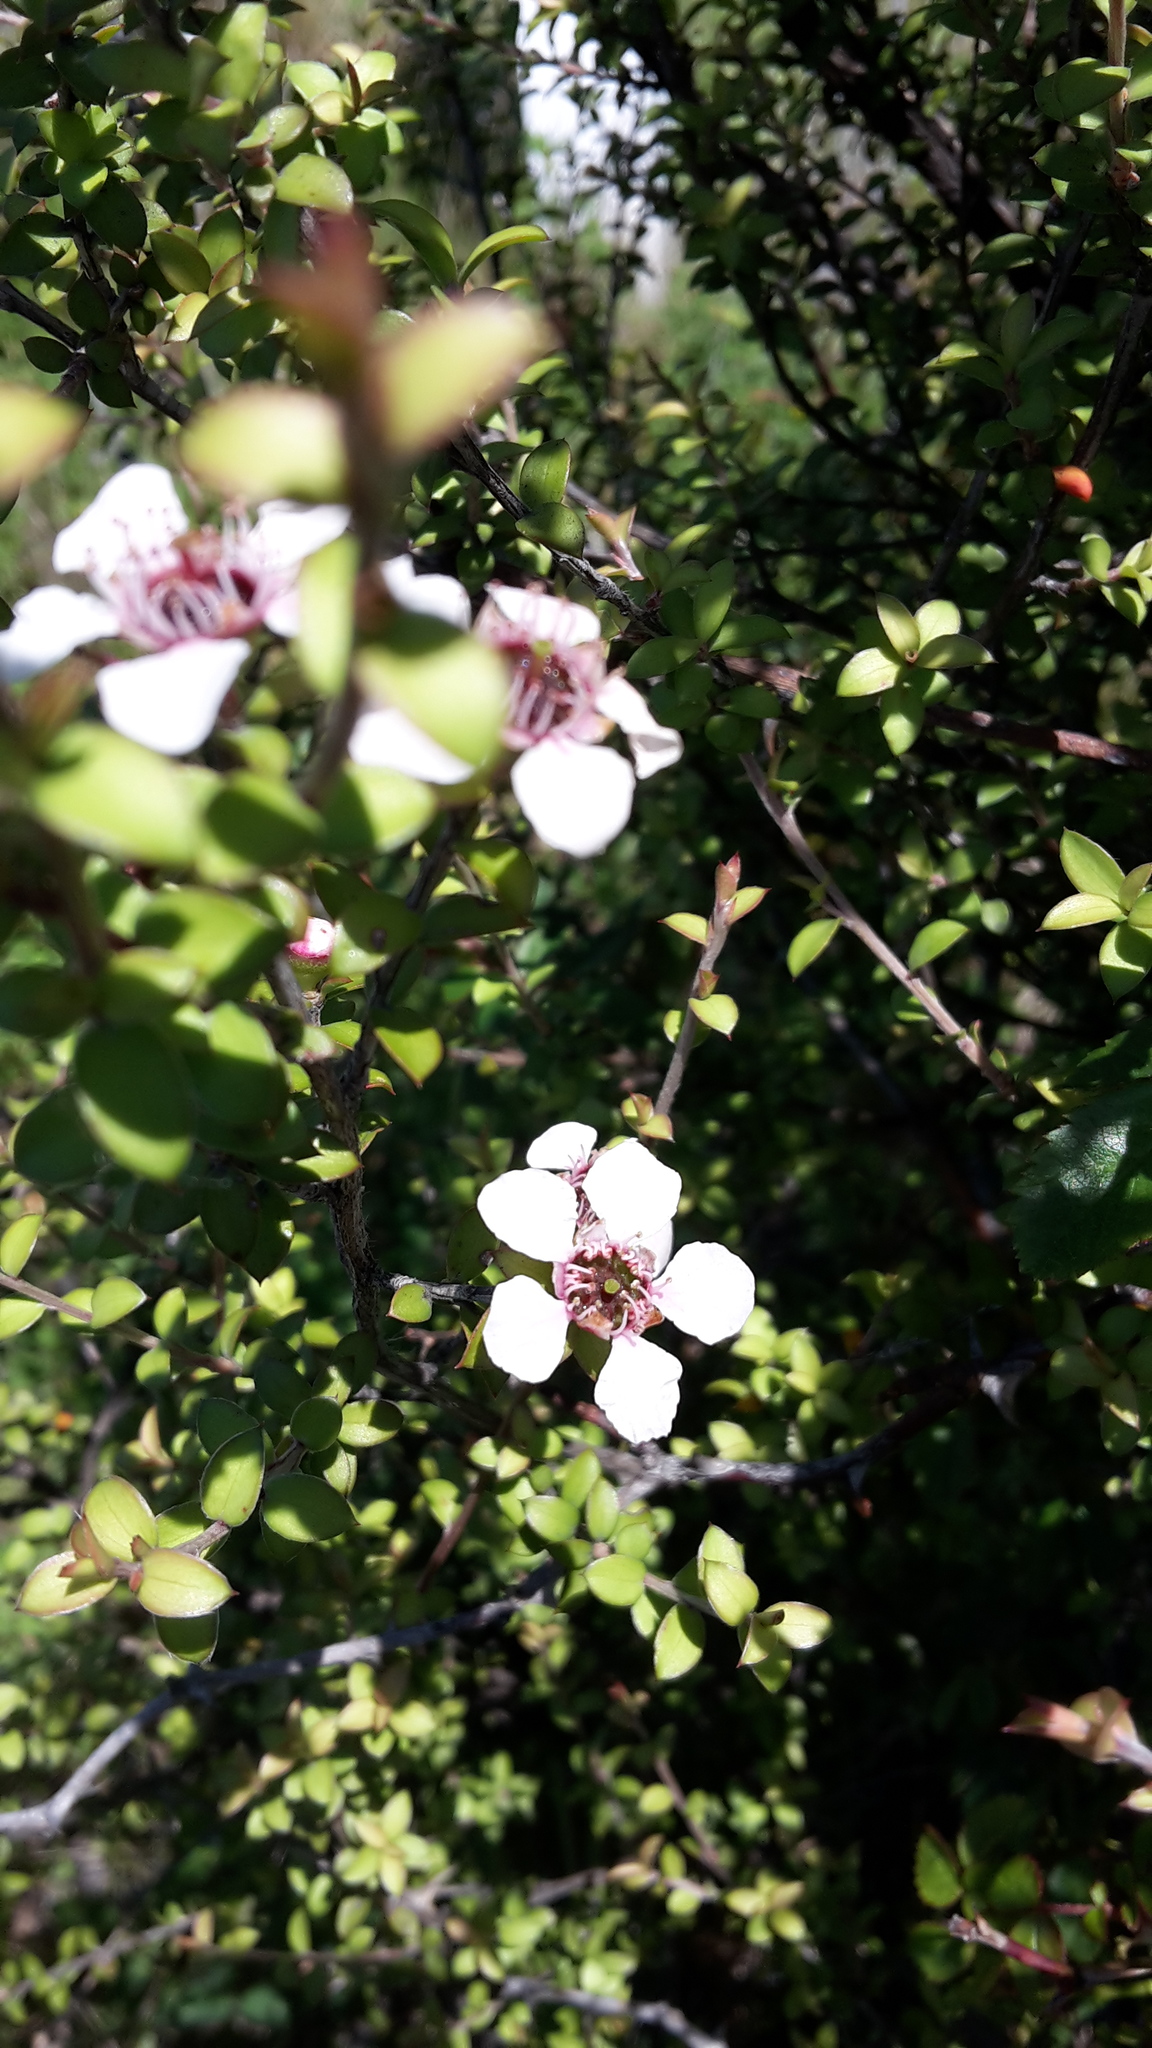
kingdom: Plantae
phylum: Tracheophyta
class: Magnoliopsida
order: Myrtales
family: Myrtaceae
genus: Leptospermum
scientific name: Leptospermum scoparium
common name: Broom tea-tree
